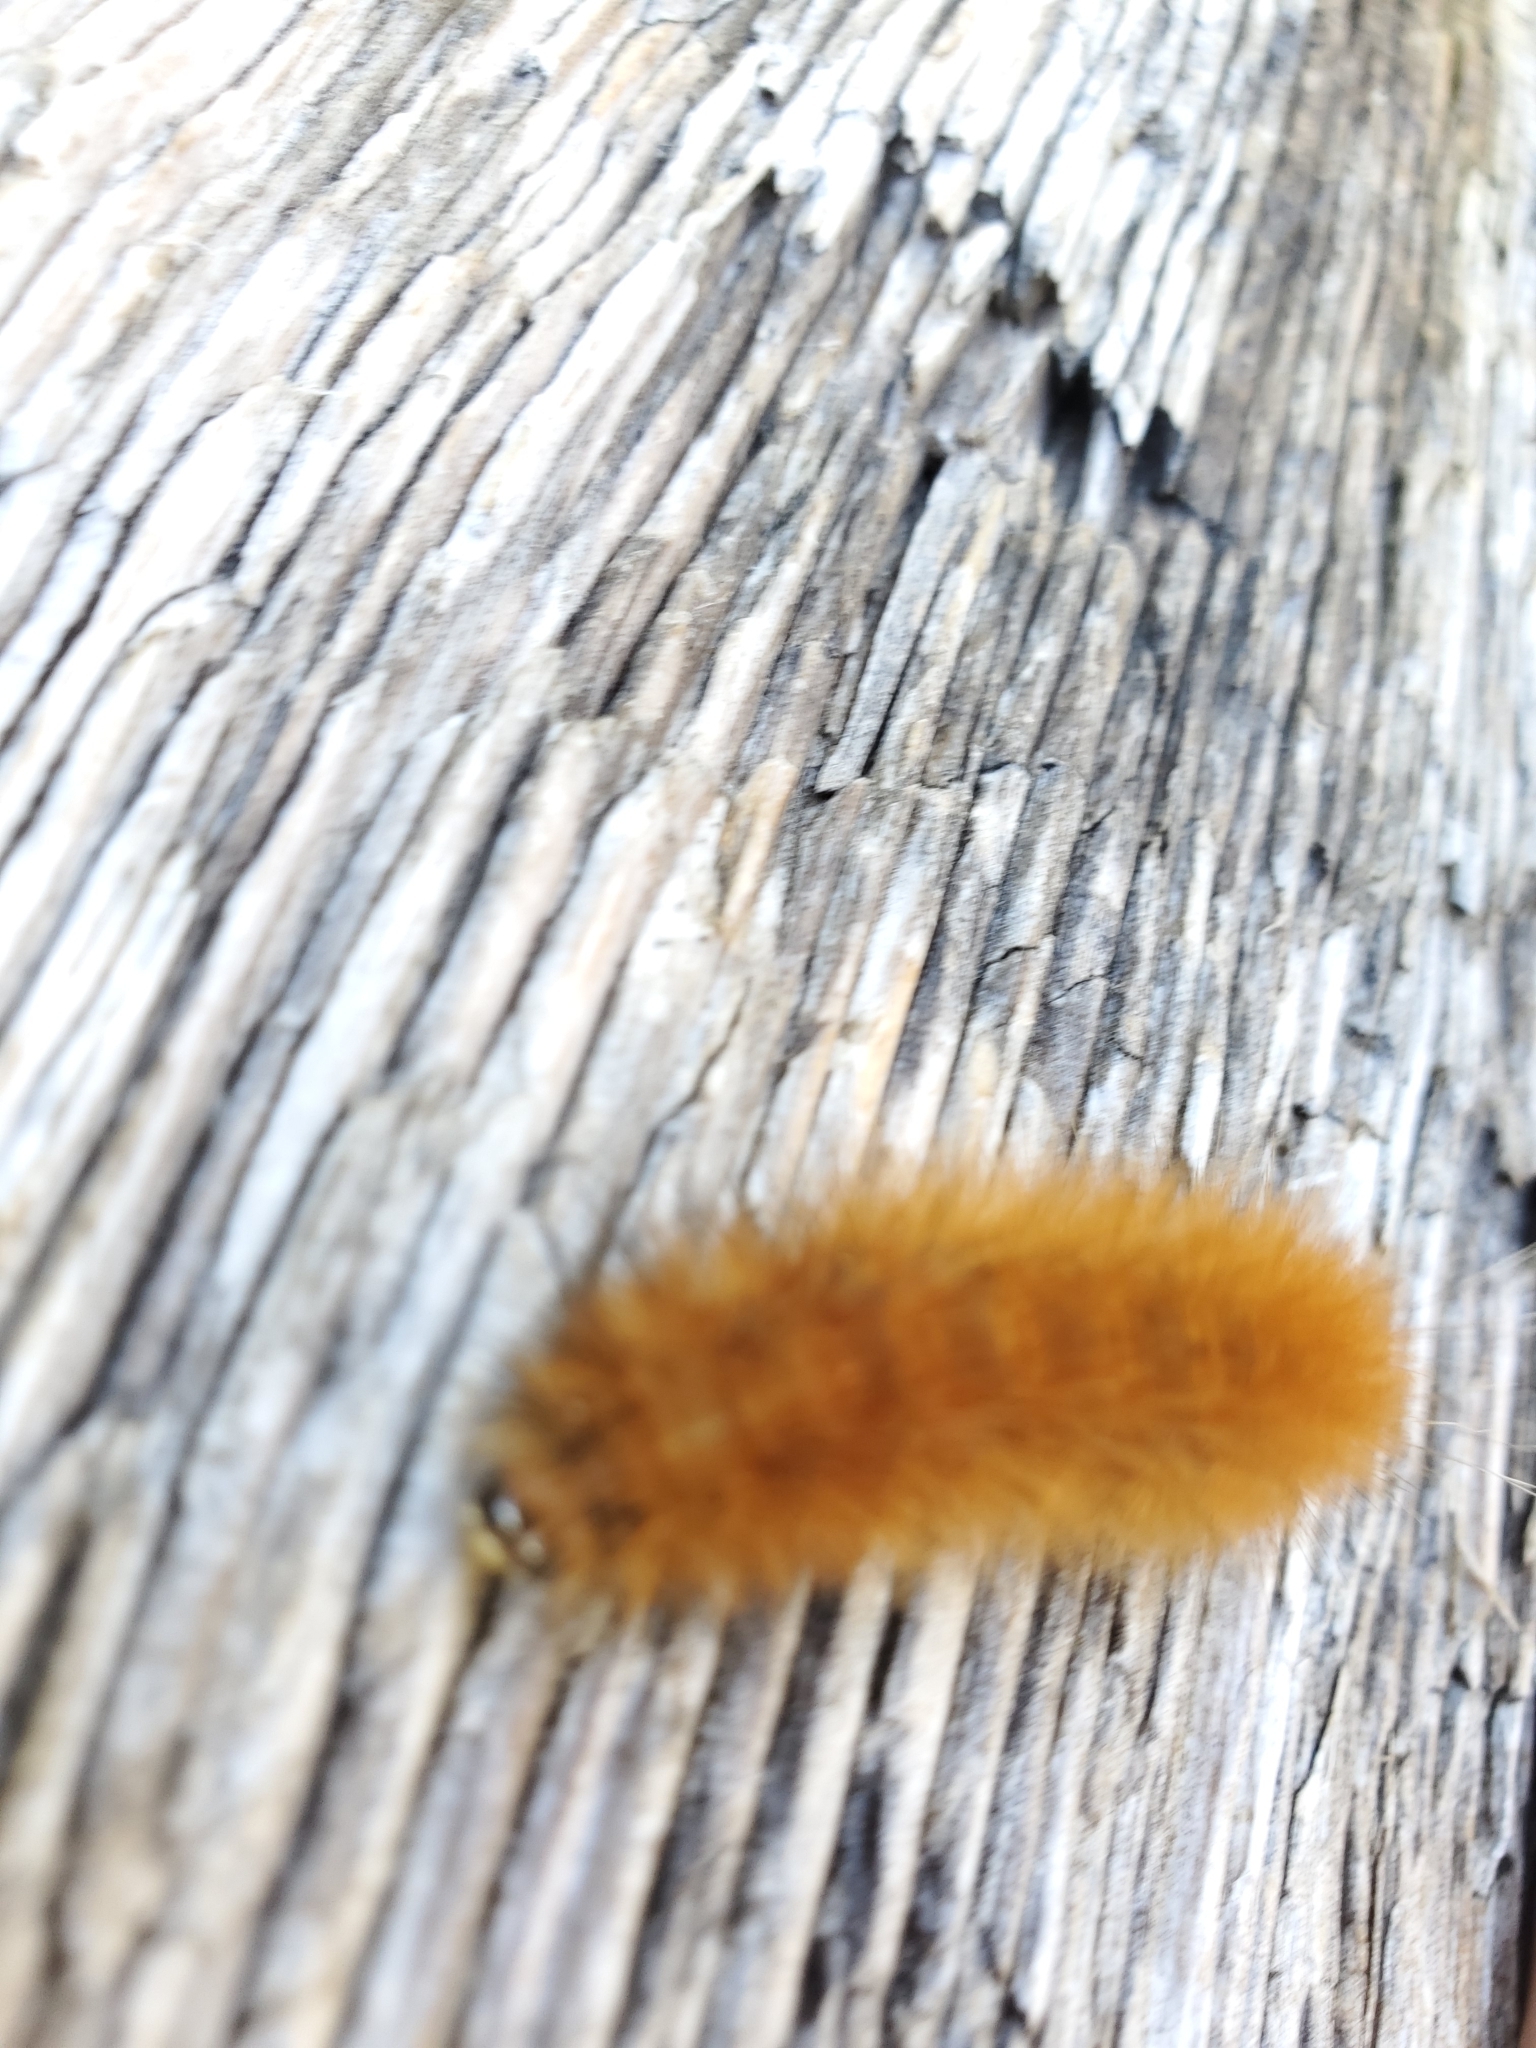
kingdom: Animalia
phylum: Arthropoda
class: Insecta
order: Lepidoptera
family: Erebidae
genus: Spilosoma
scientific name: Spilosoma virginica
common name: Virginia tiger moth
